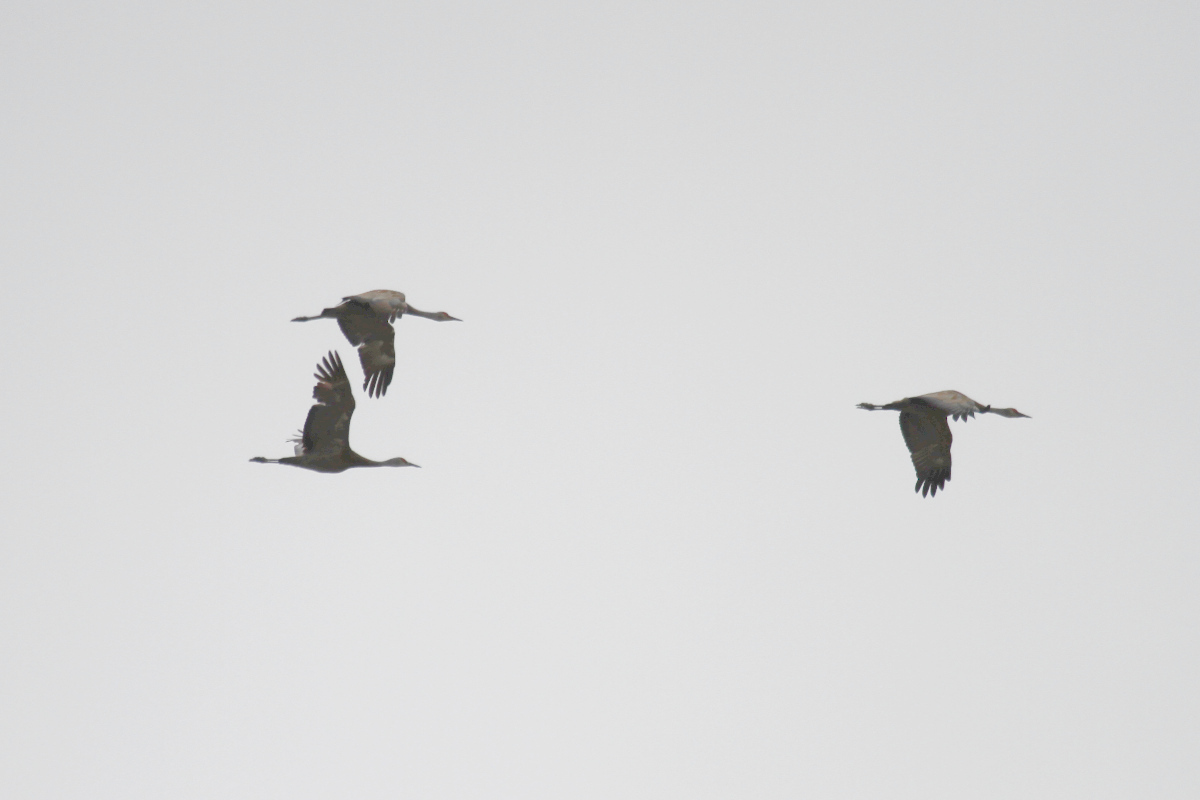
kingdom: Animalia
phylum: Chordata
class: Aves
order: Gruiformes
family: Gruidae
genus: Grus
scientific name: Grus canadensis
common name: Sandhill crane
